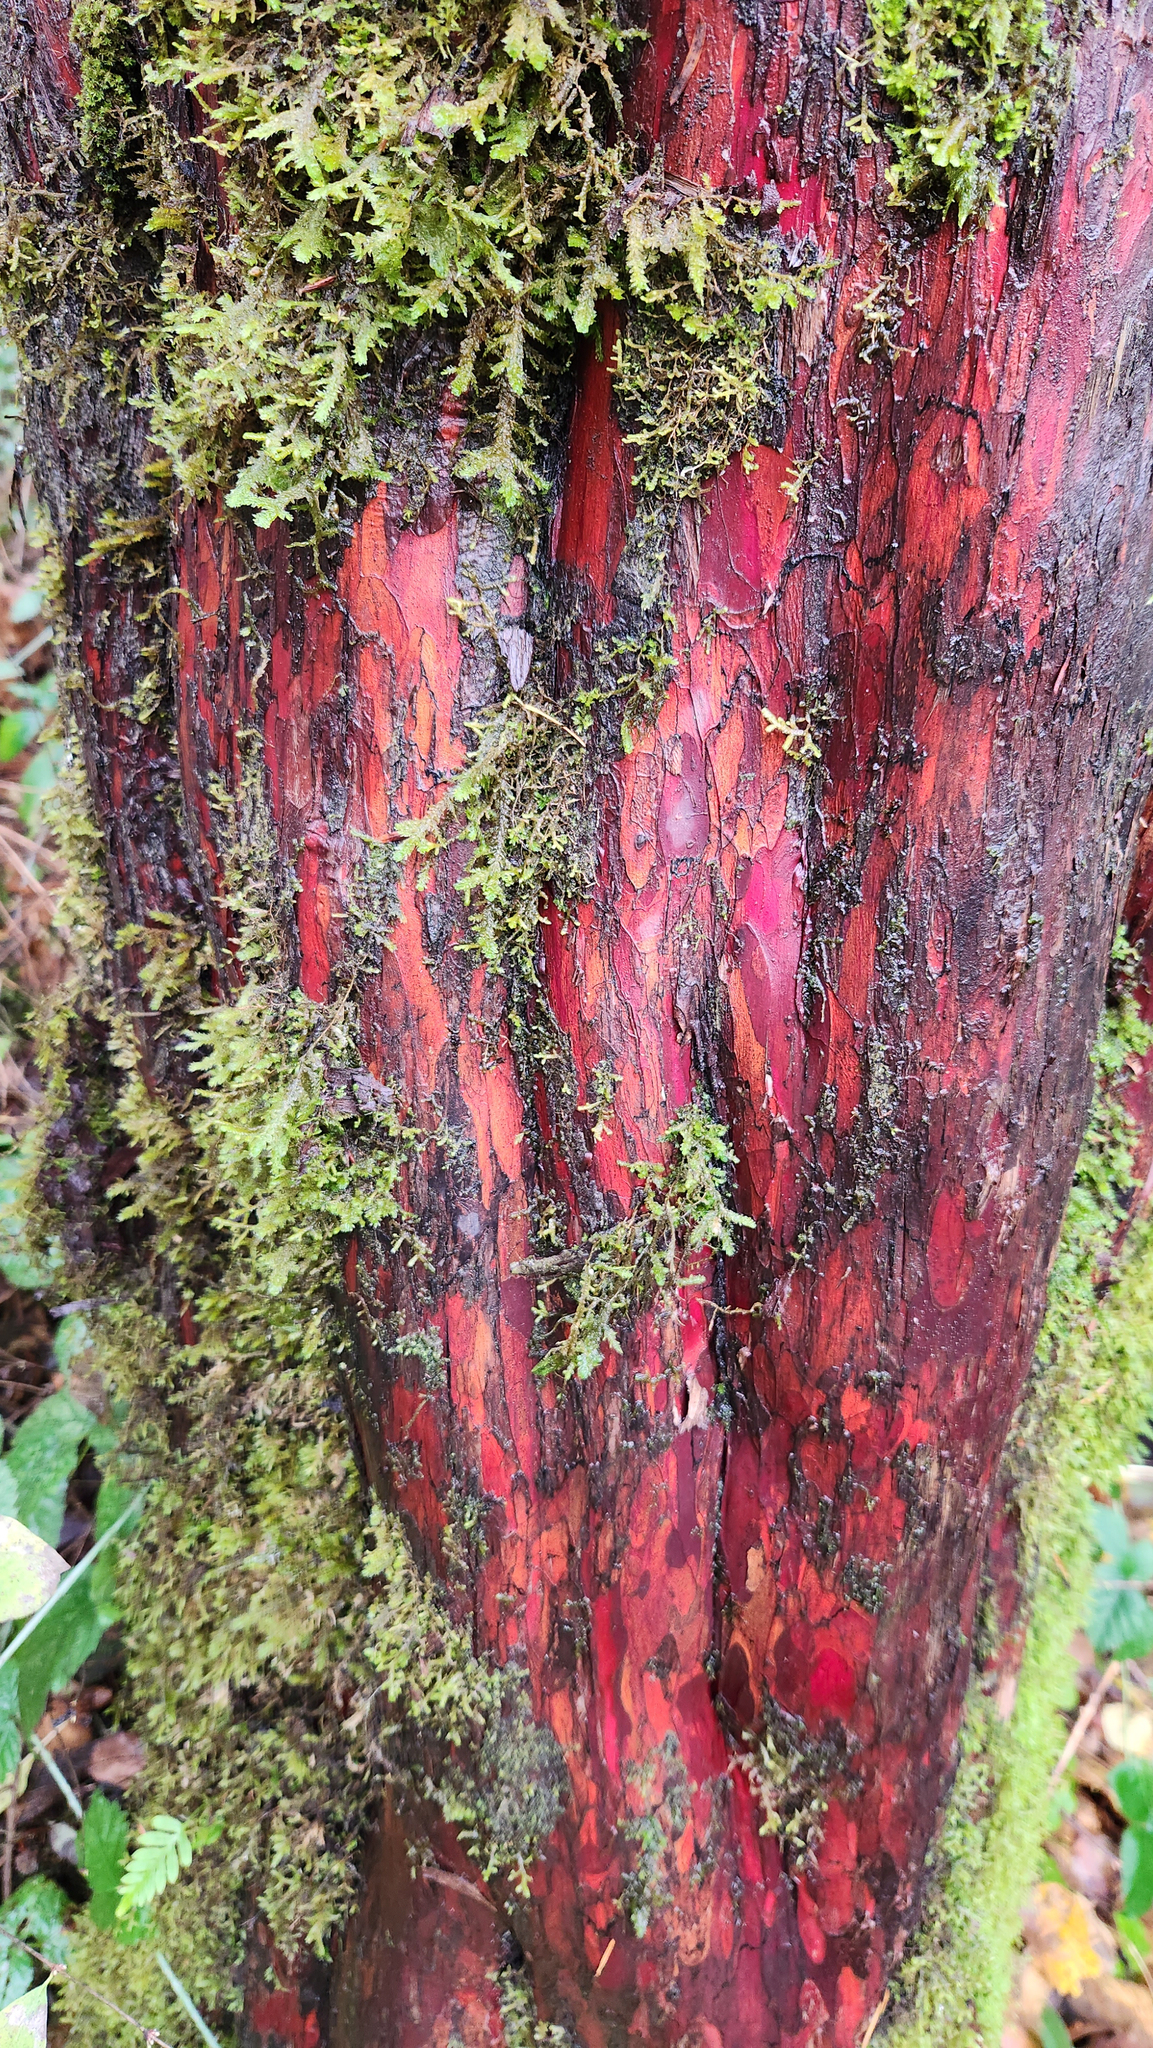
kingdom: Plantae
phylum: Tracheophyta
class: Pinopsida
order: Pinales
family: Taxaceae
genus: Taxus
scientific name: Taxus brevifolia
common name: Pacific yew
